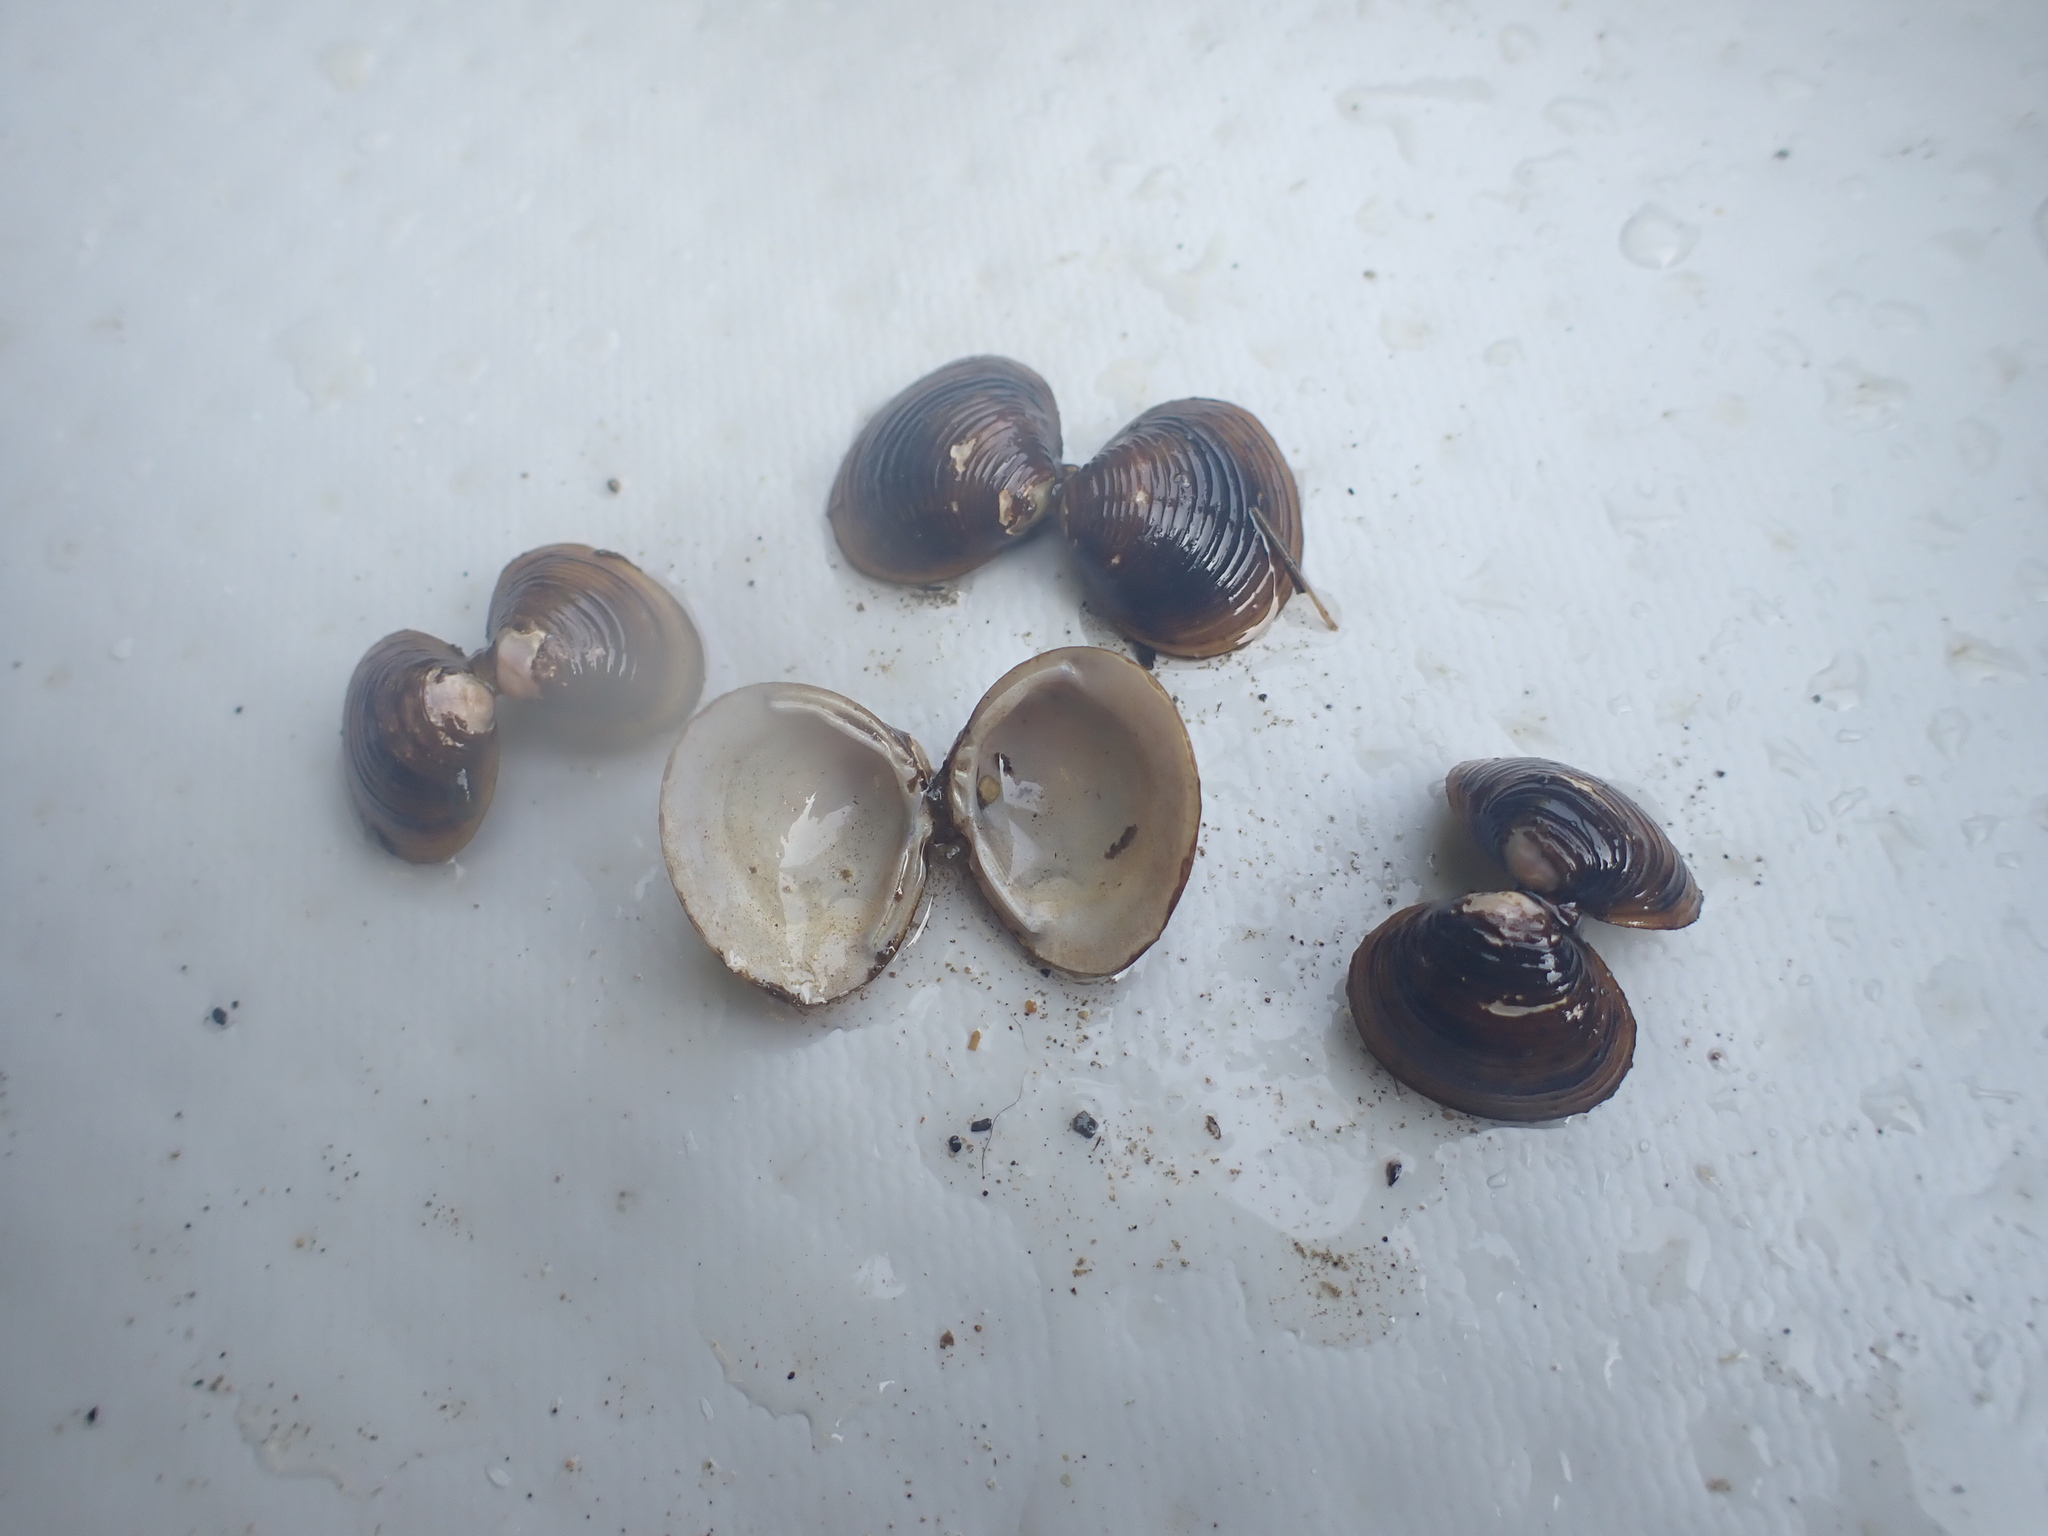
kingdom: Animalia
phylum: Mollusca
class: Bivalvia
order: Venerida
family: Cyrenidae
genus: Corbicula
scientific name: Corbicula fluminea
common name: Asian clam
